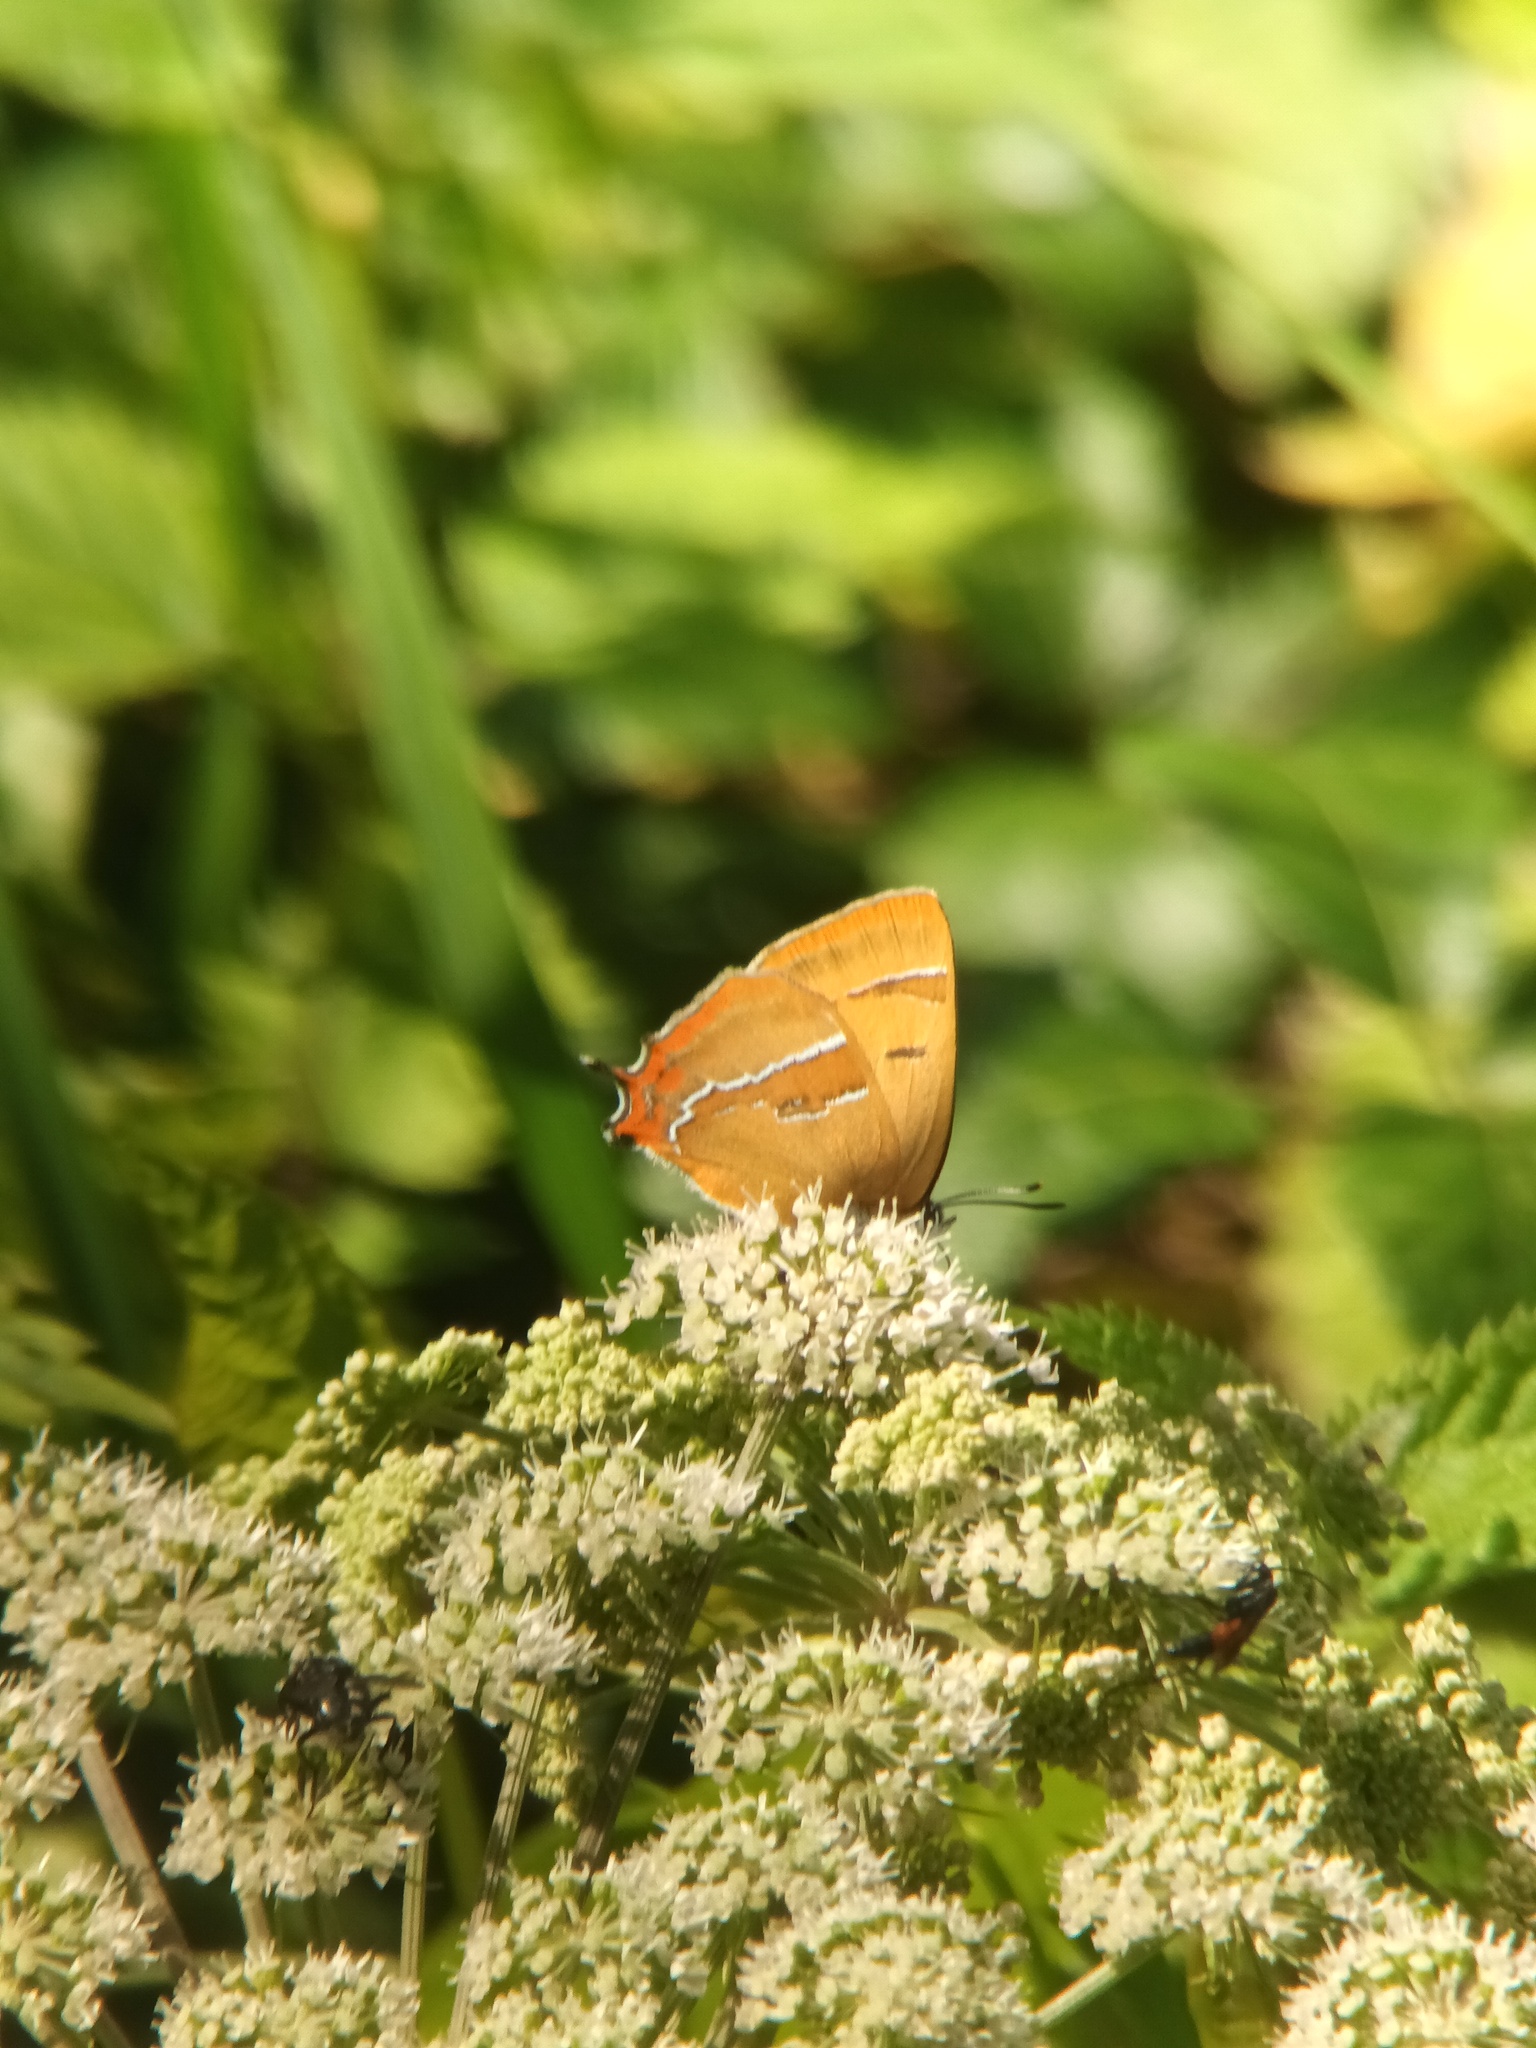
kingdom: Animalia
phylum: Arthropoda
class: Insecta
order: Lepidoptera
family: Lycaenidae
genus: Thecla
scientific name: Thecla betulae
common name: Brown hairstreak
